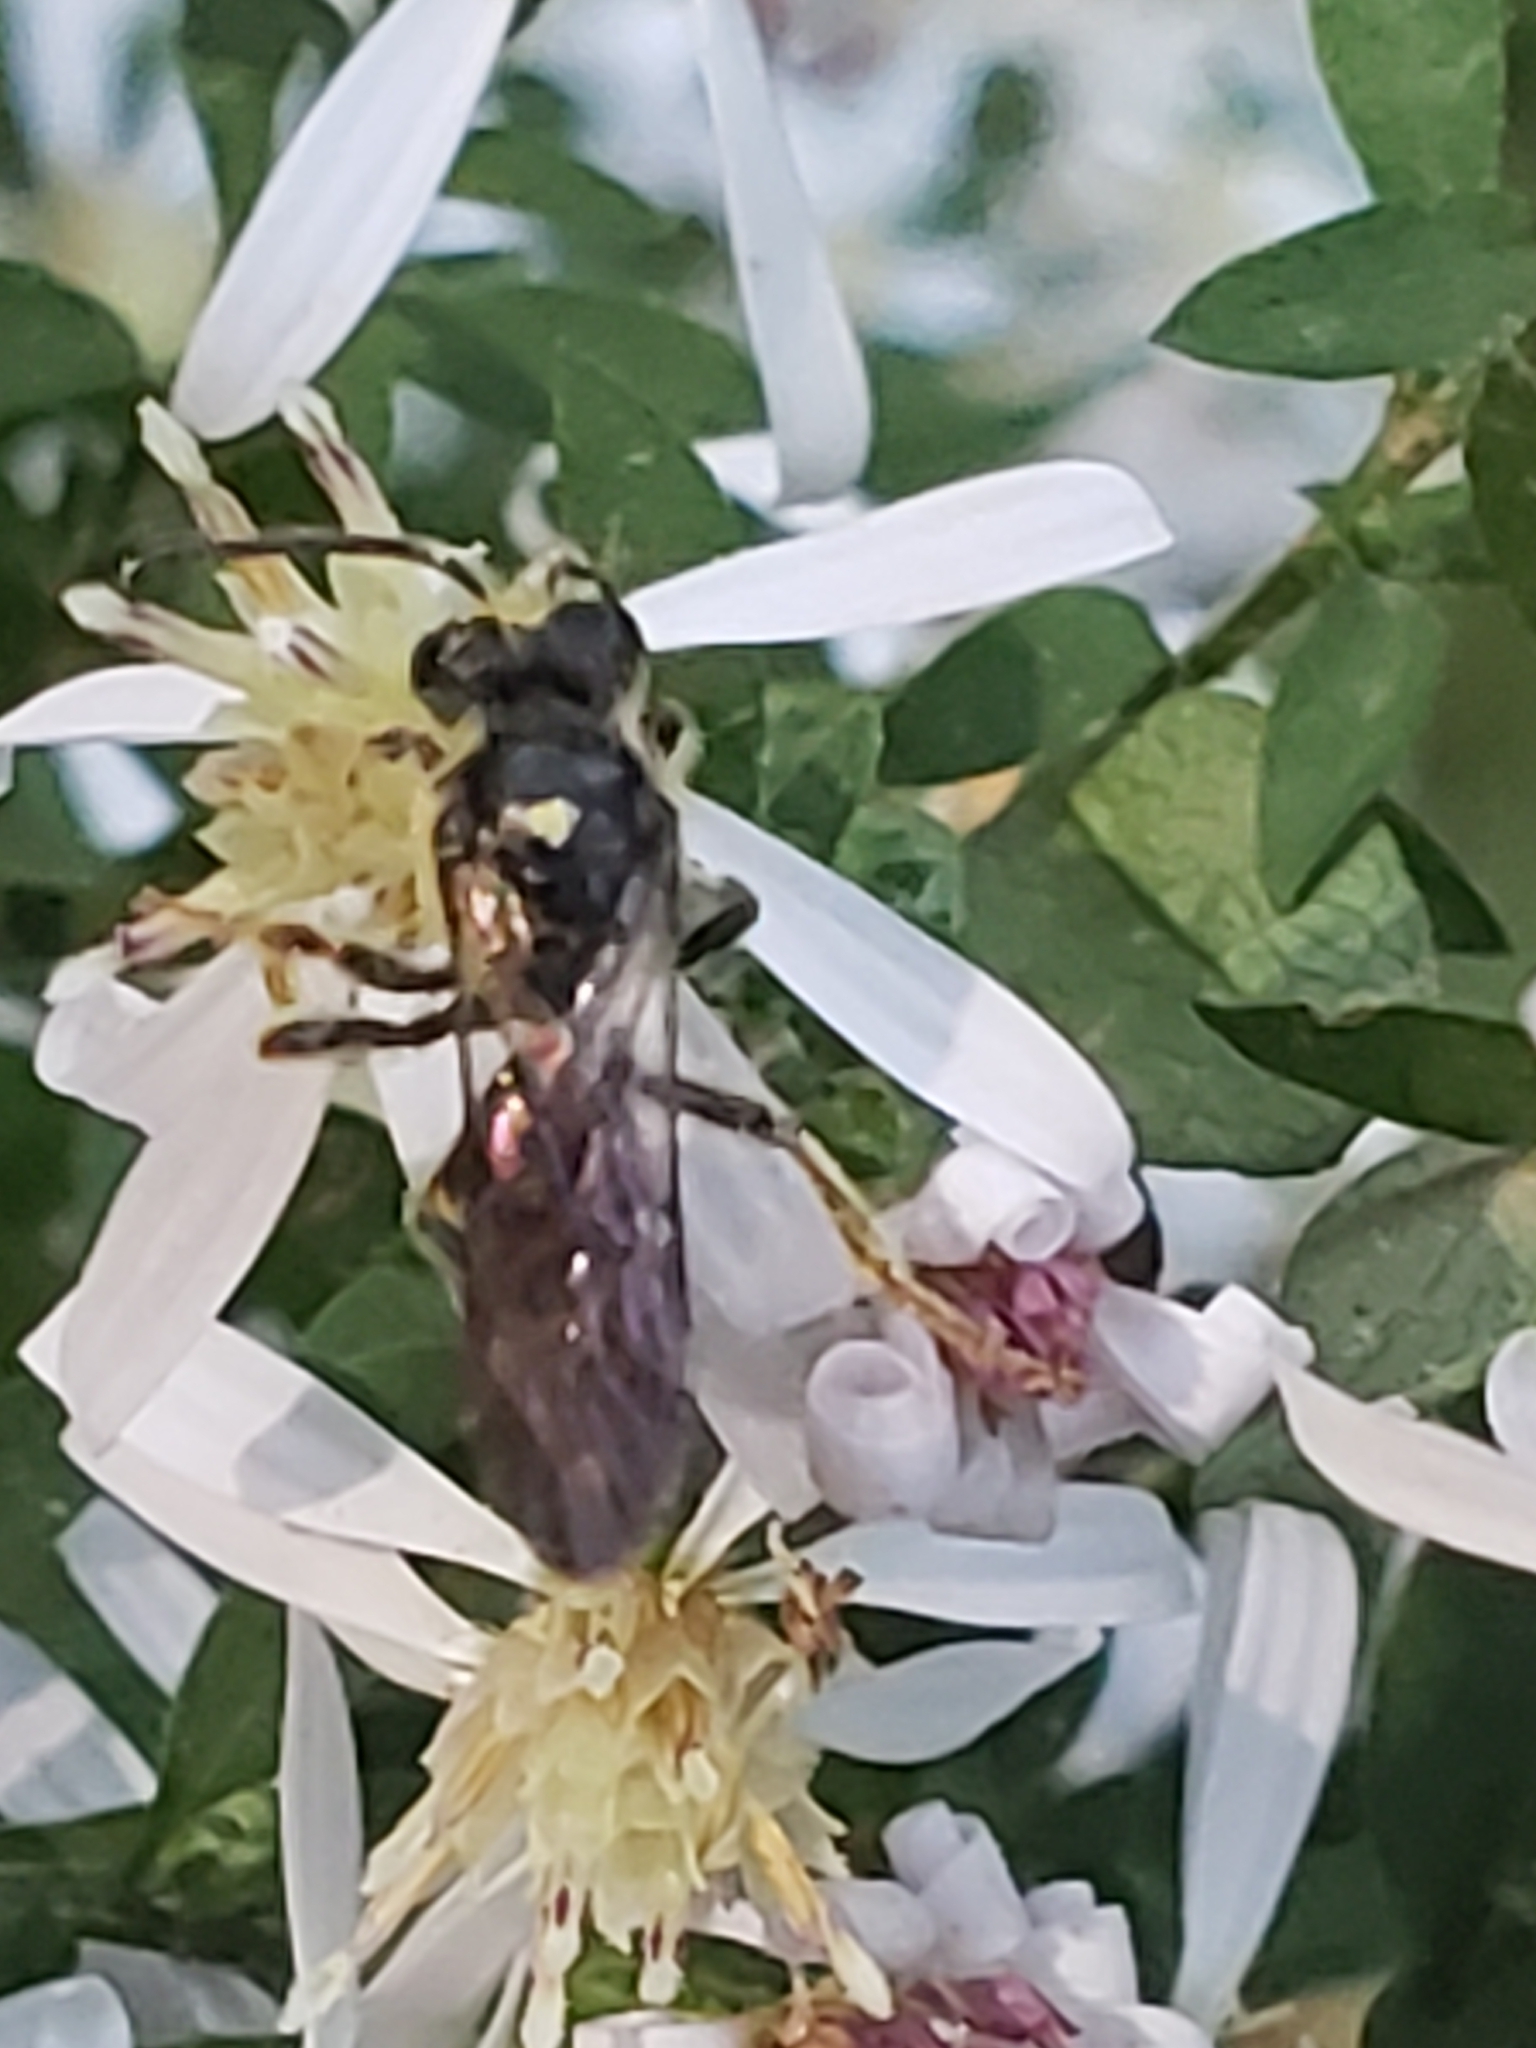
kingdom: Animalia
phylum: Arthropoda
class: Insecta
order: Hymenoptera
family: Halictidae
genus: Lasioglossum
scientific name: Lasioglossum fuscipenne
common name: Brown-winged sweat bee
